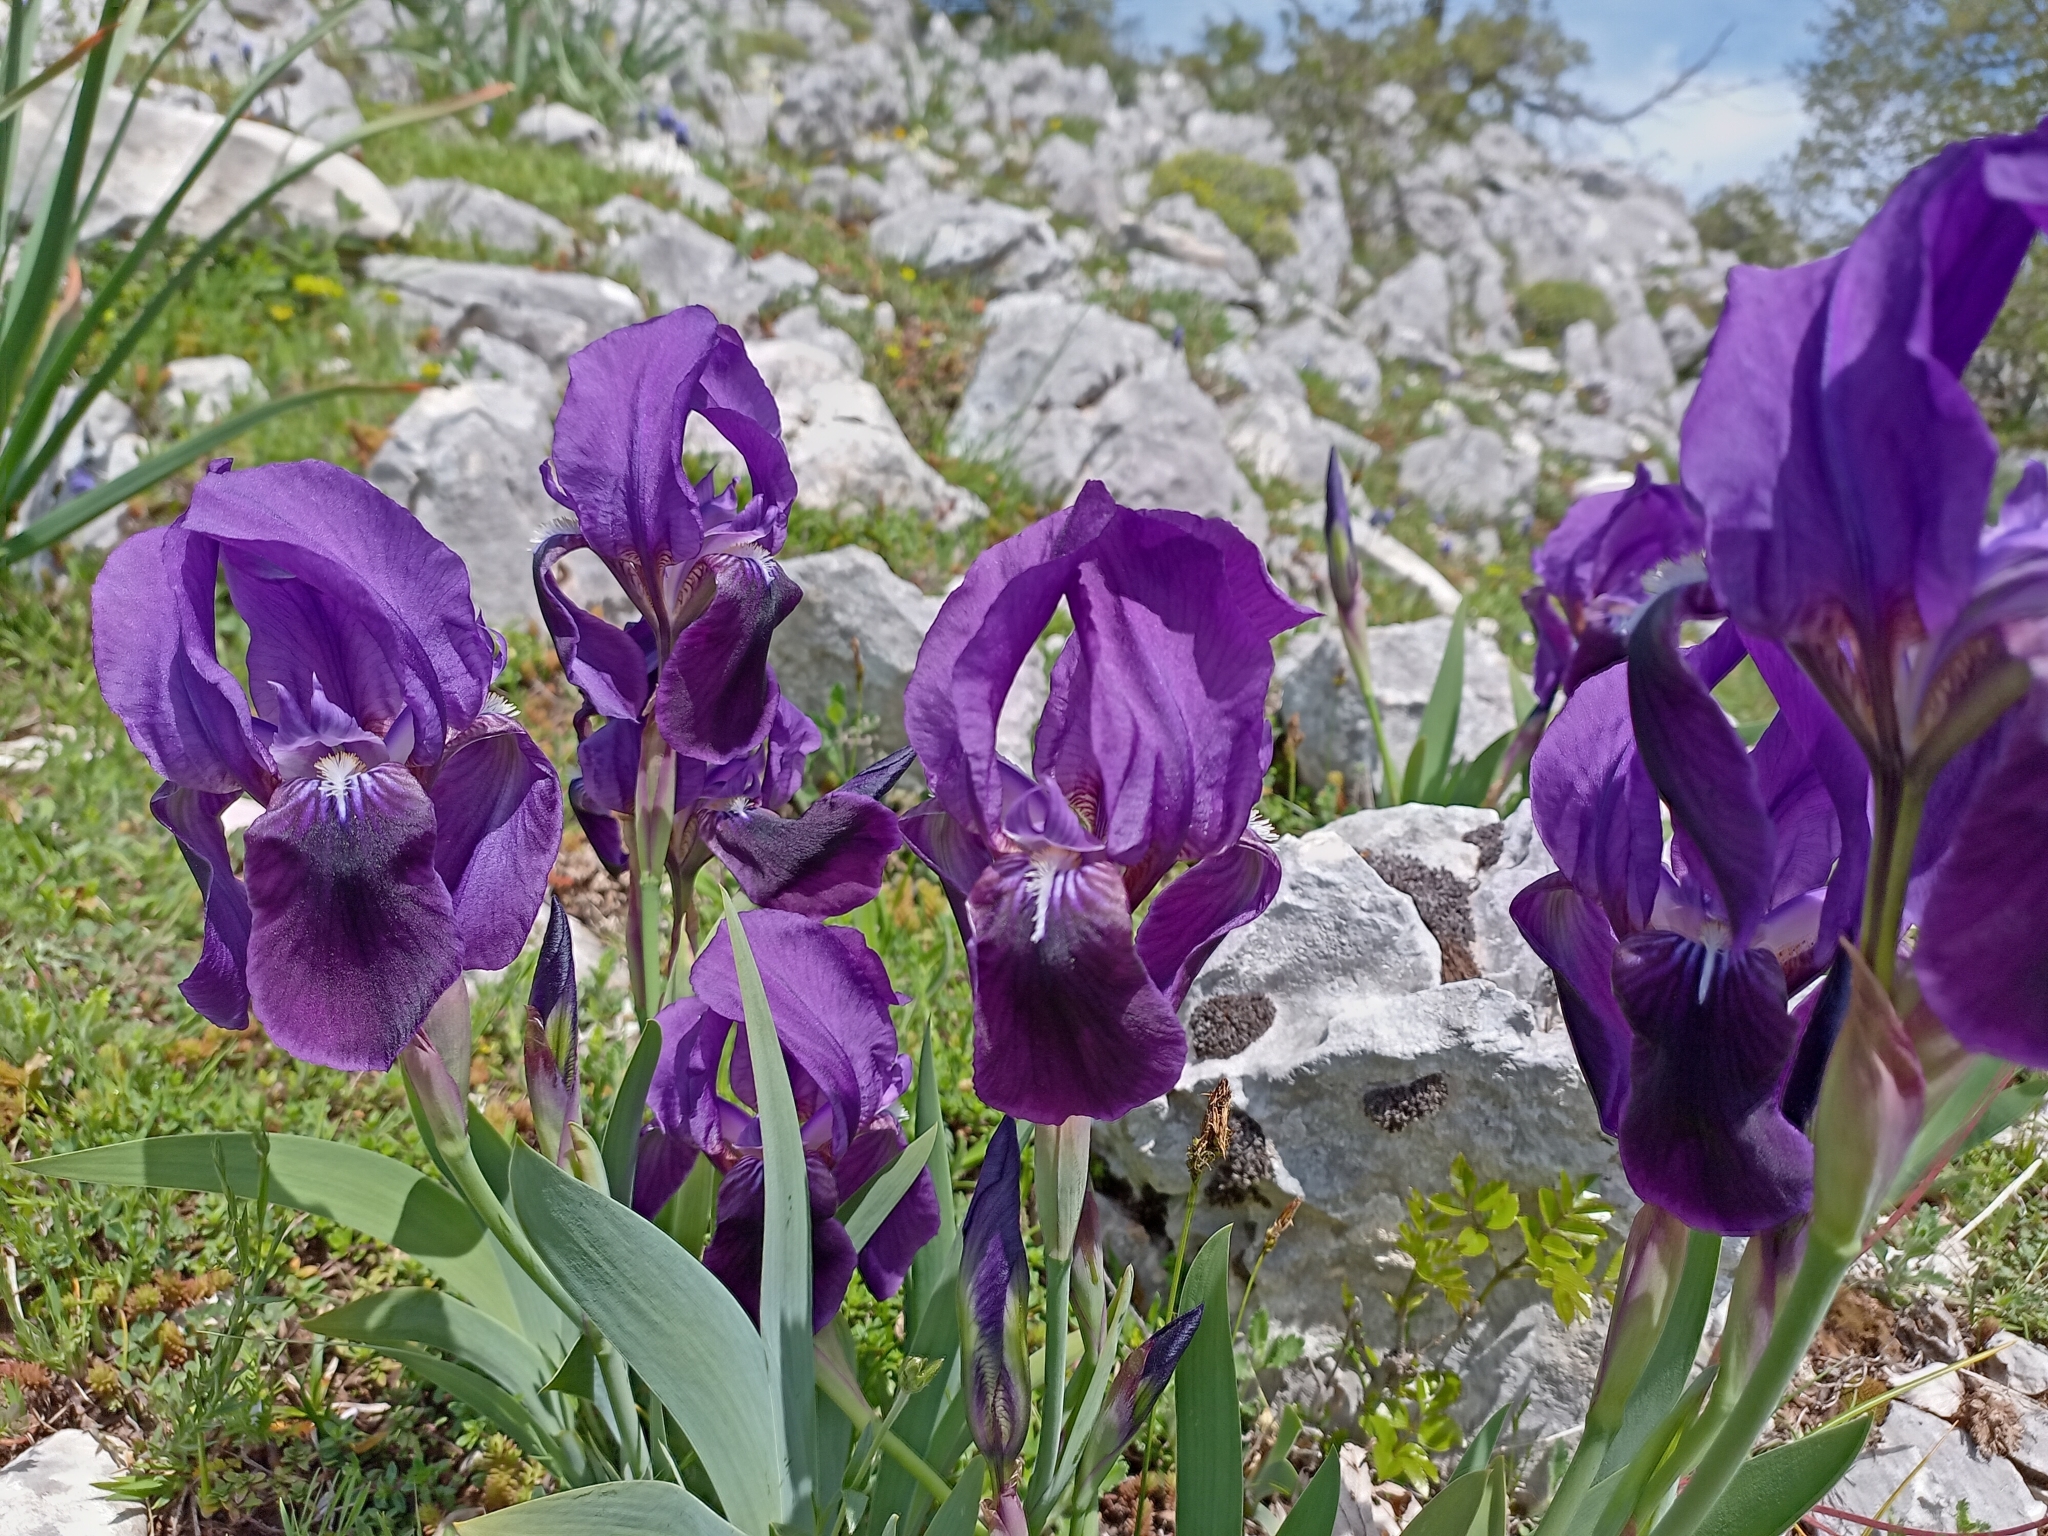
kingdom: Plantae
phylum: Tracheophyta
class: Liliopsida
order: Asparagales
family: Iridaceae
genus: Iris
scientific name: Iris sabina
